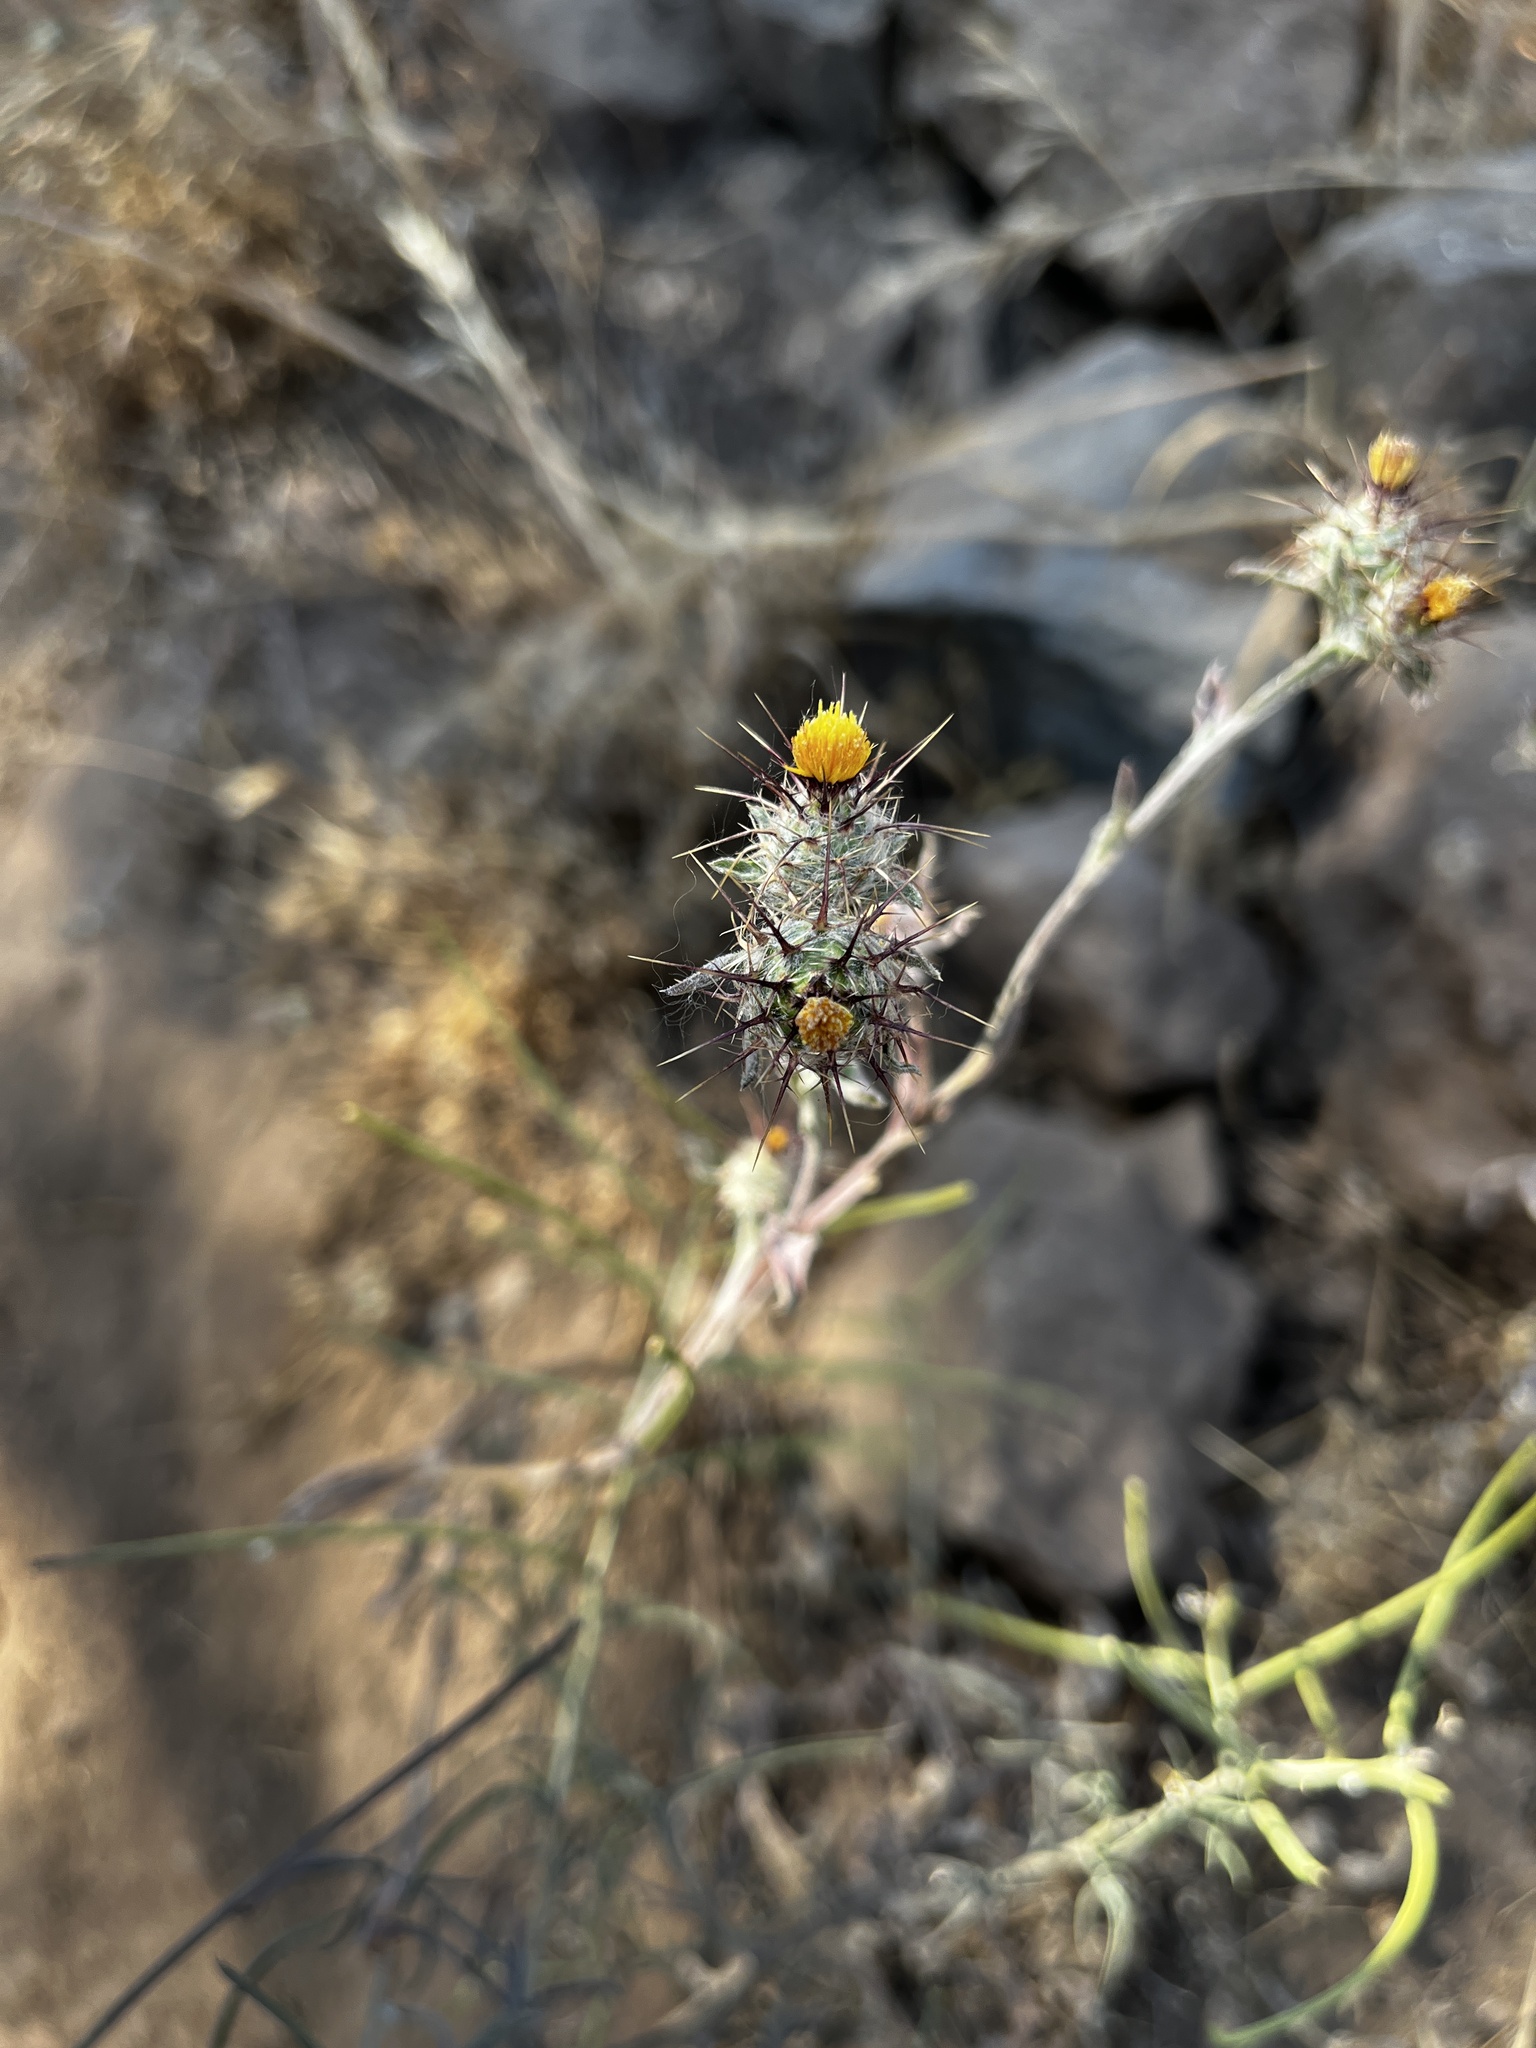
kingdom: Plantae
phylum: Tracheophyta
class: Magnoliopsida
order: Asterales
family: Asteraceae
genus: Centaurea
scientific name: Centaurea melitensis
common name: Maltese star-thistle
